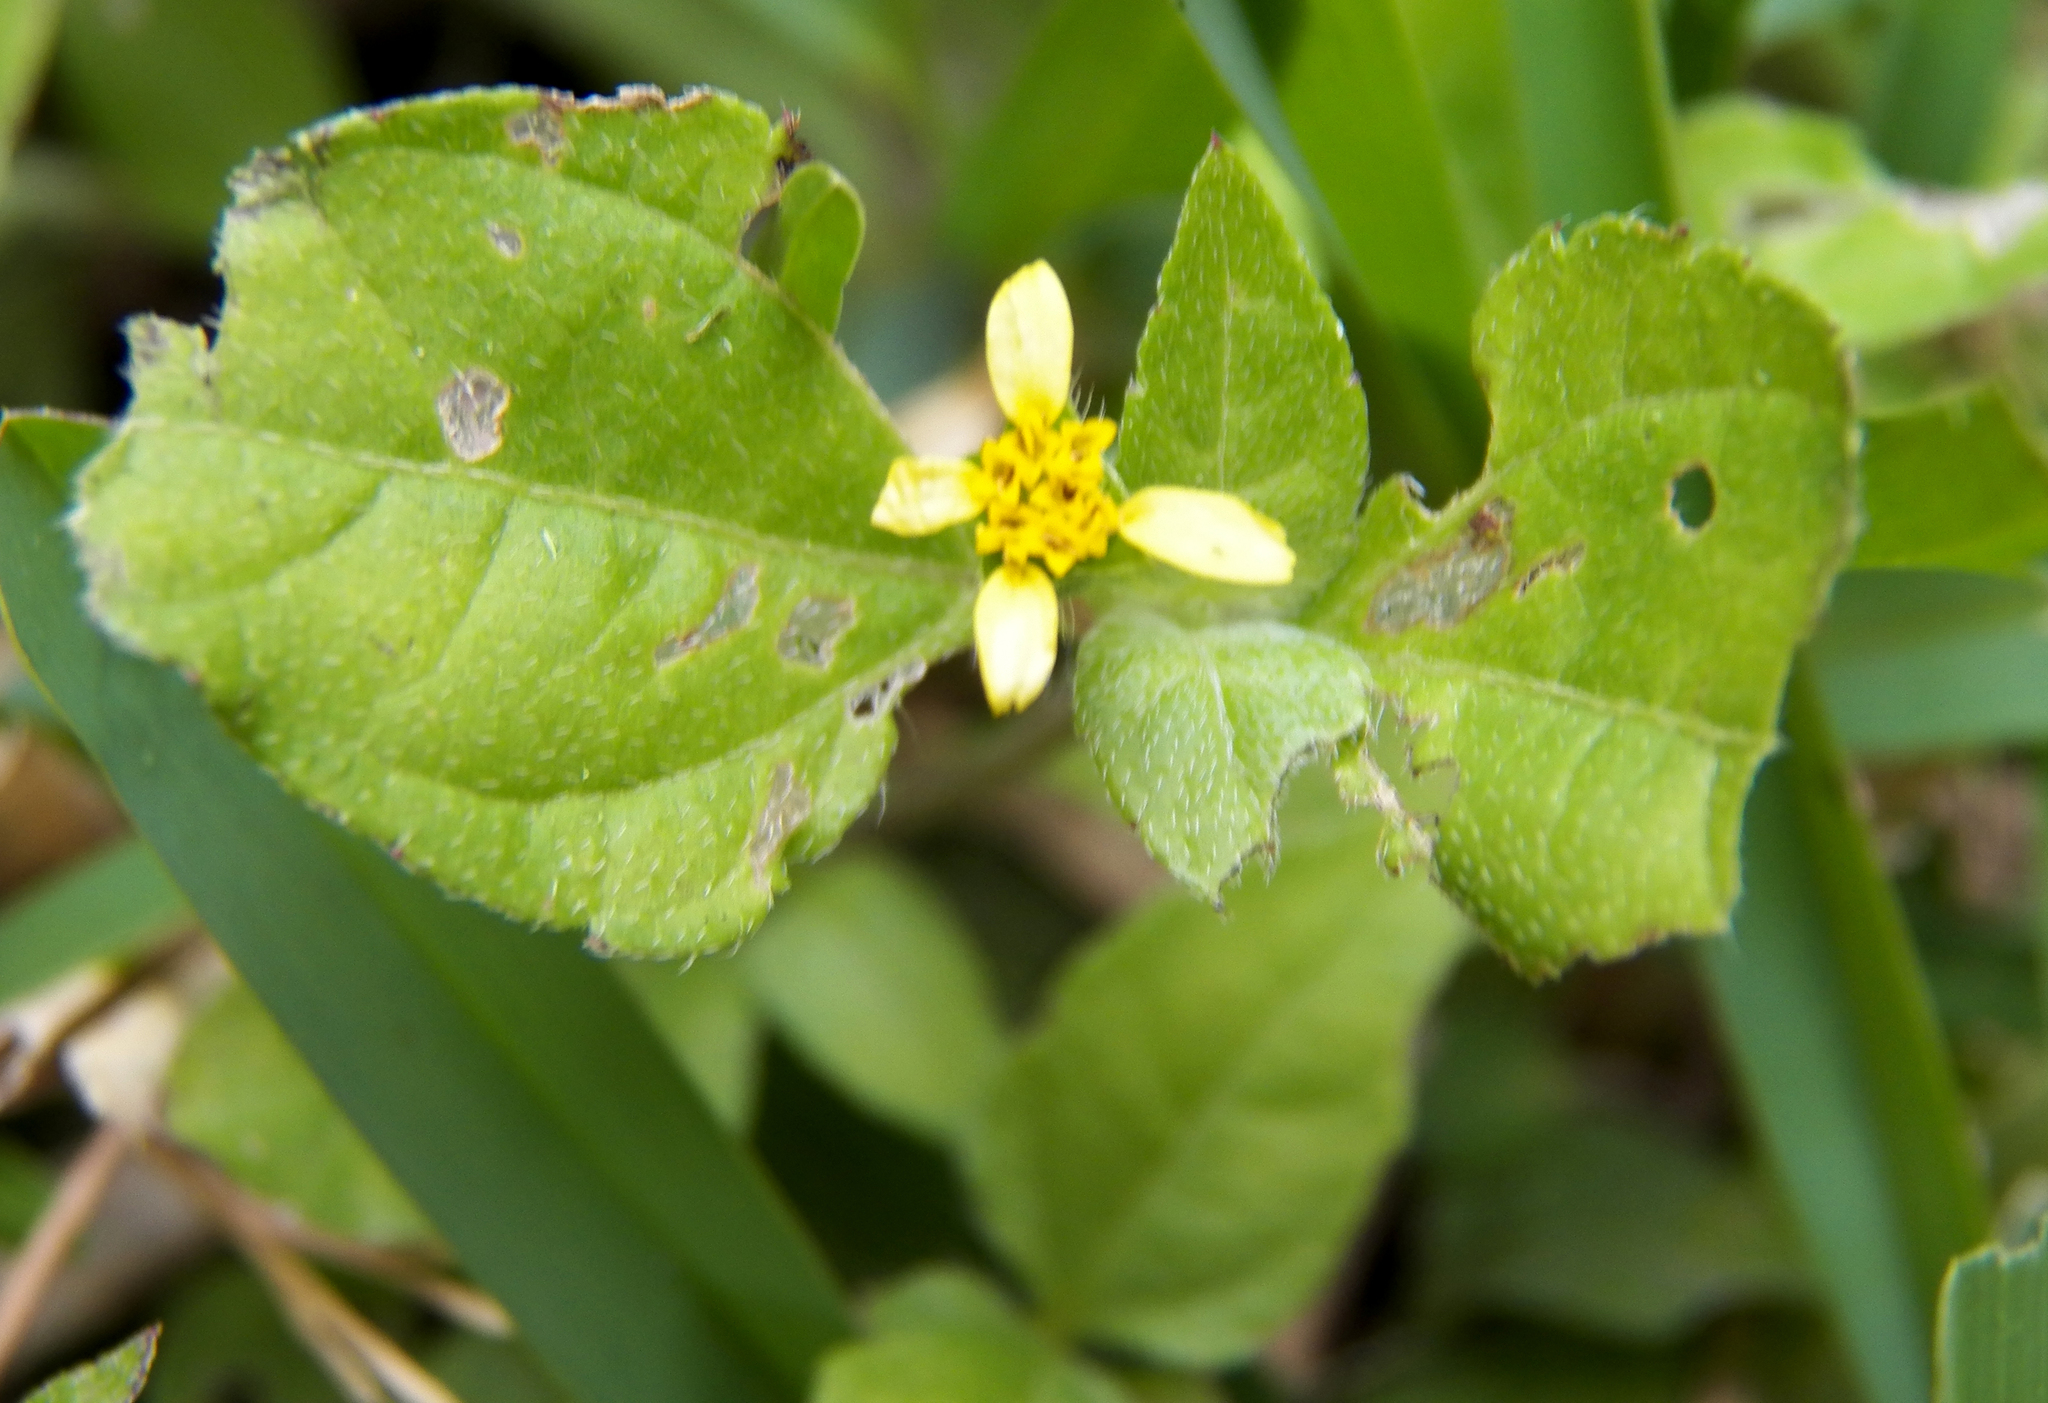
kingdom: Plantae
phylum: Tracheophyta
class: Magnoliopsida
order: Asterales
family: Asteraceae
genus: Calyptocarpus
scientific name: Calyptocarpus vialis
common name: Straggler daisy
